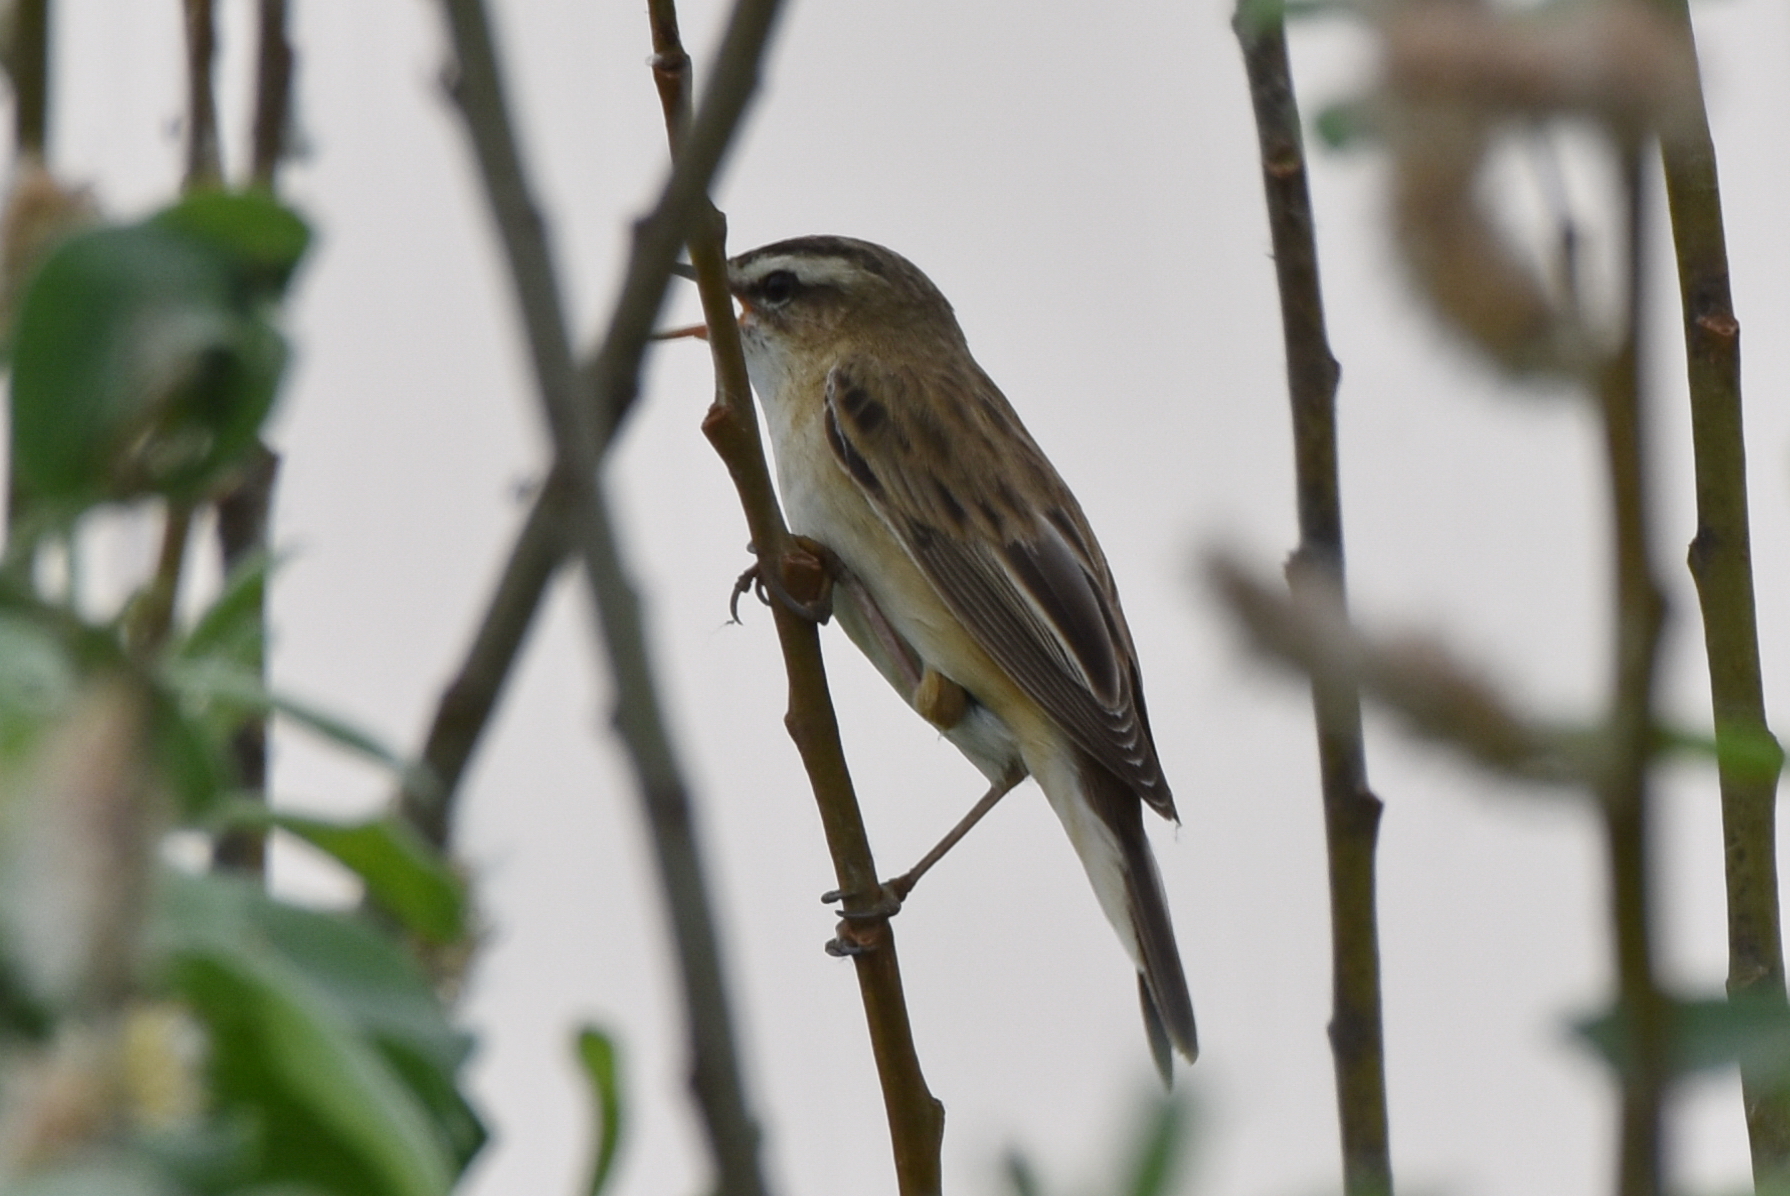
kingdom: Animalia
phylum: Chordata
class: Aves
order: Passeriformes
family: Acrocephalidae
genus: Acrocephalus
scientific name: Acrocephalus schoenobaenus
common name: Sedge warbler
